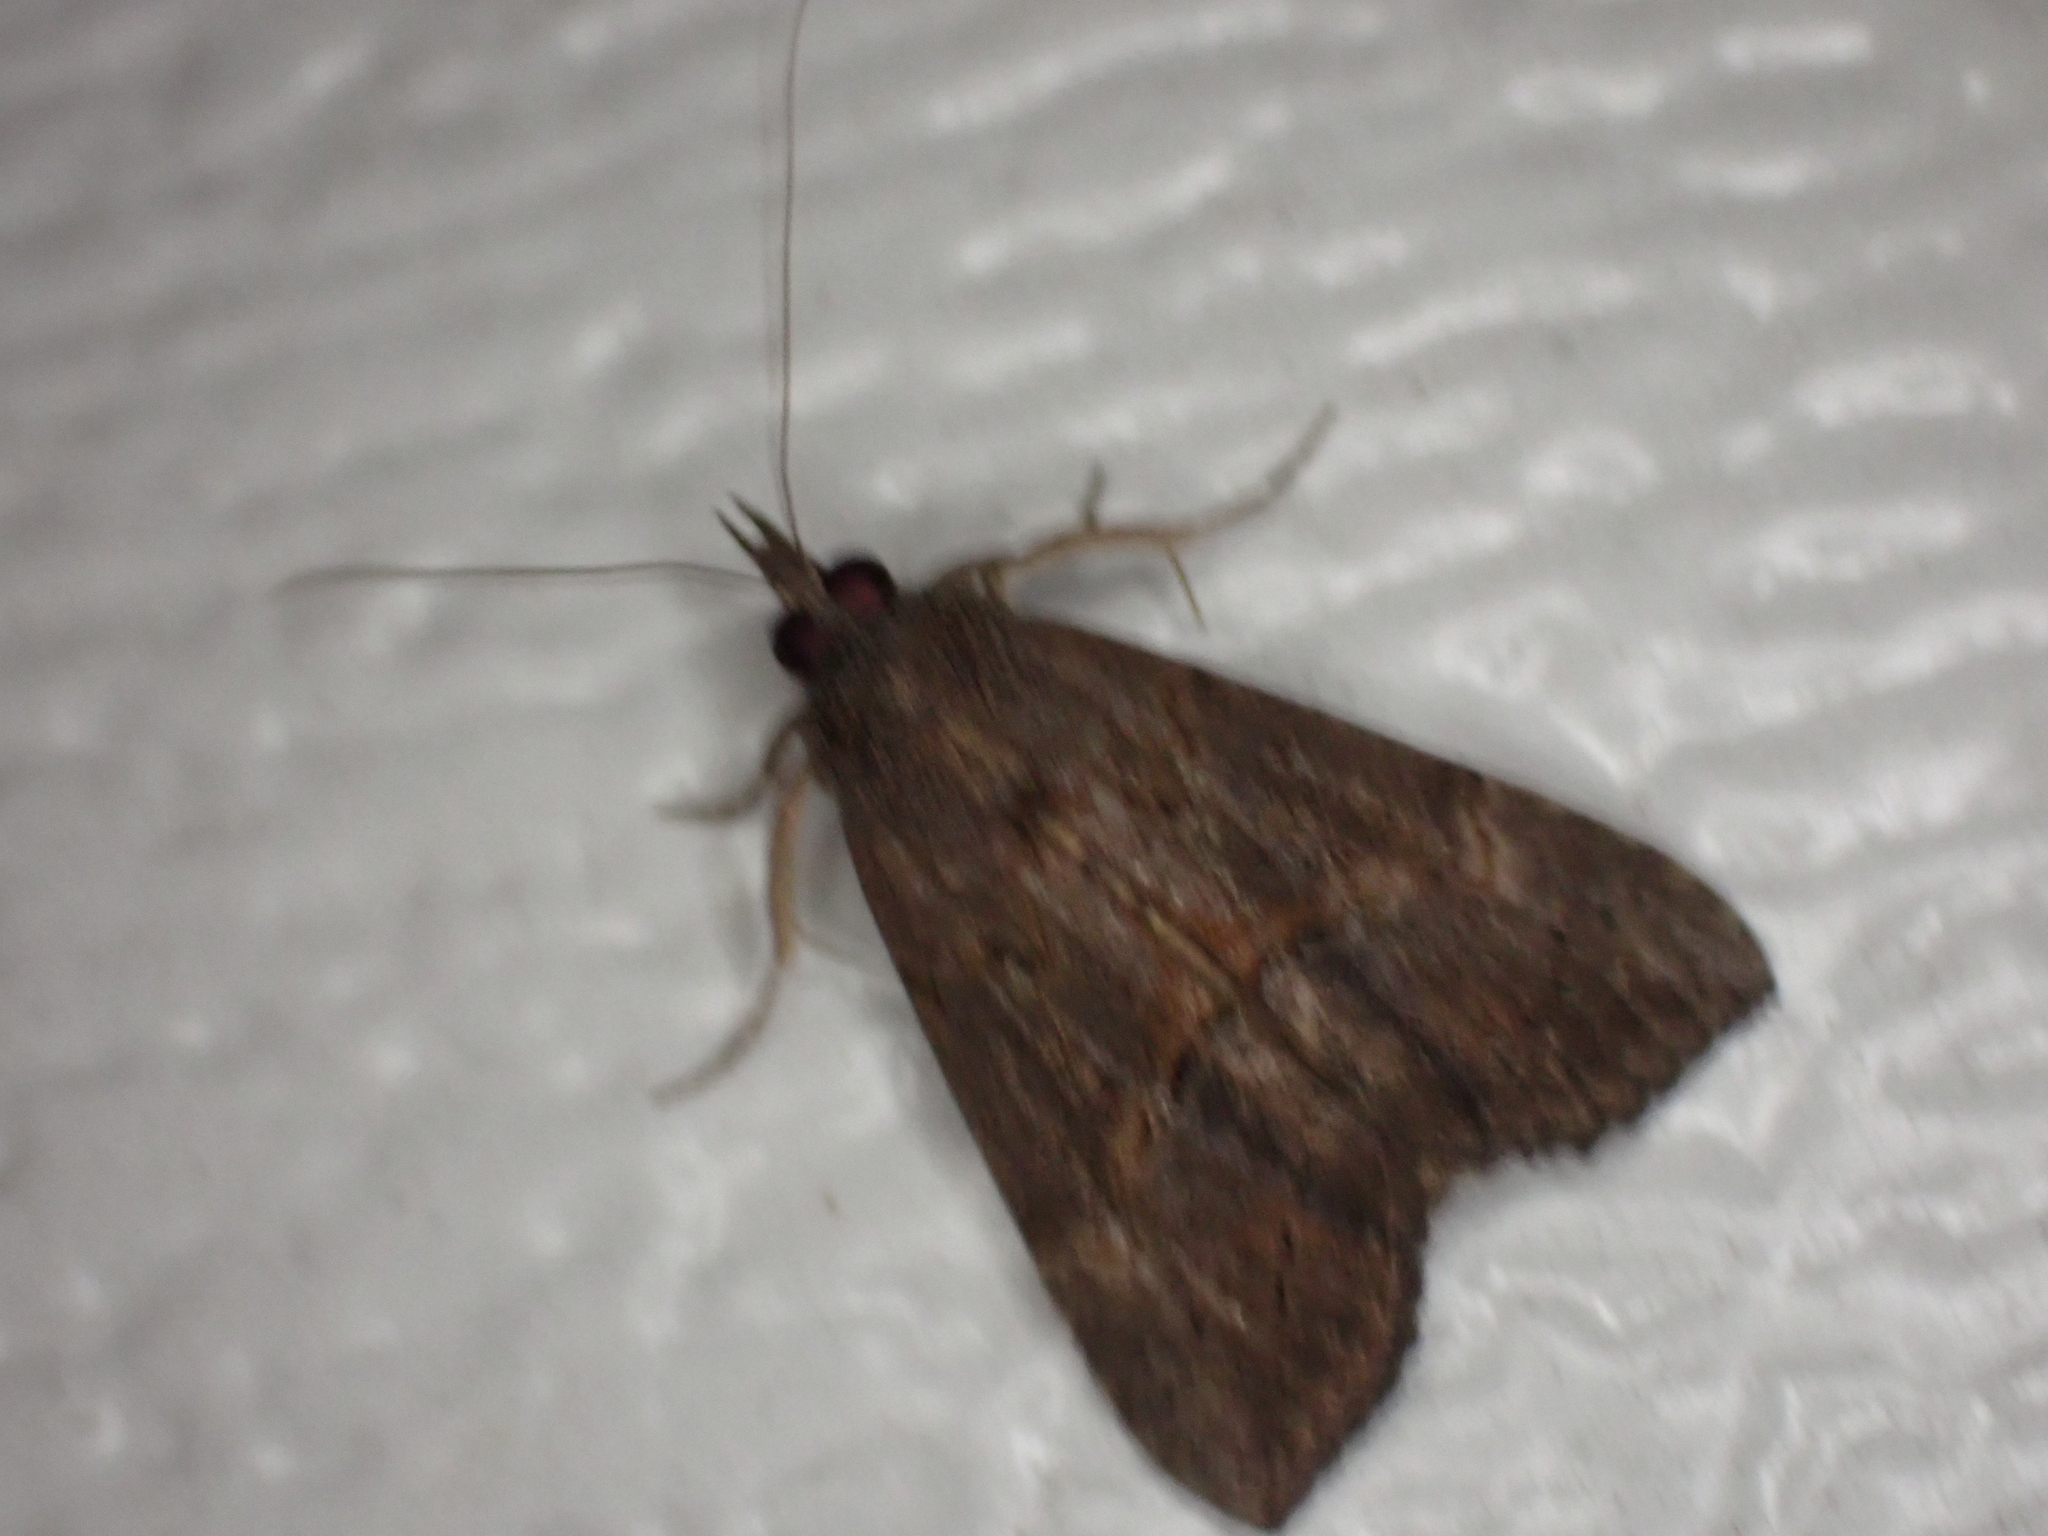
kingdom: Animalia
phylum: Arthropoda
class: Insecta
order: Lepidoptera
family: Erebidae
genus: Hypena
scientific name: Hypena scabra
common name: Green cloverworm
